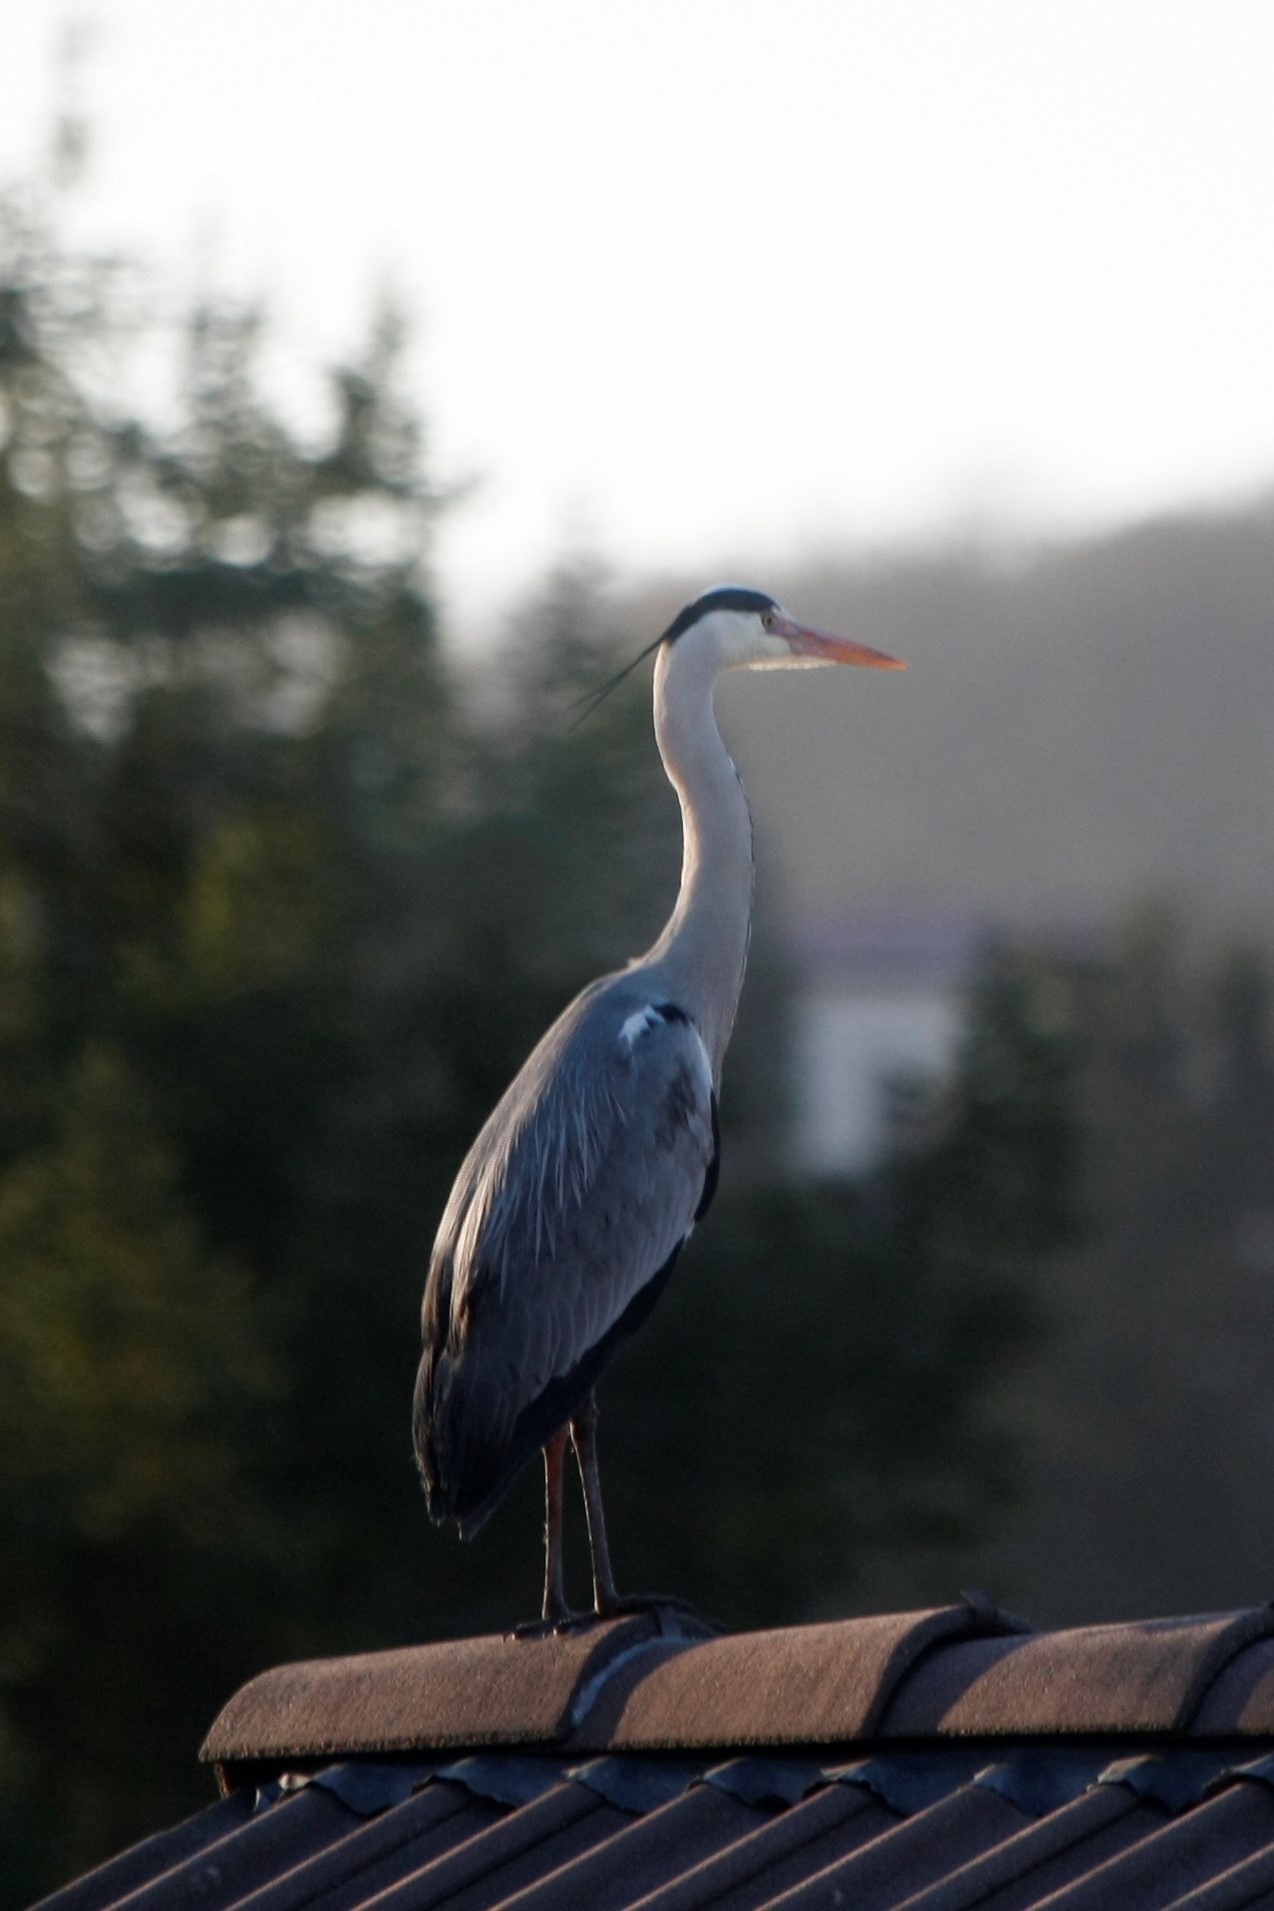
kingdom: Animalia
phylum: Chordata
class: Aves
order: Pelecaniformes
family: Ardeidae
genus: Ardea
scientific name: Ardea cinerea
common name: Grey heron
